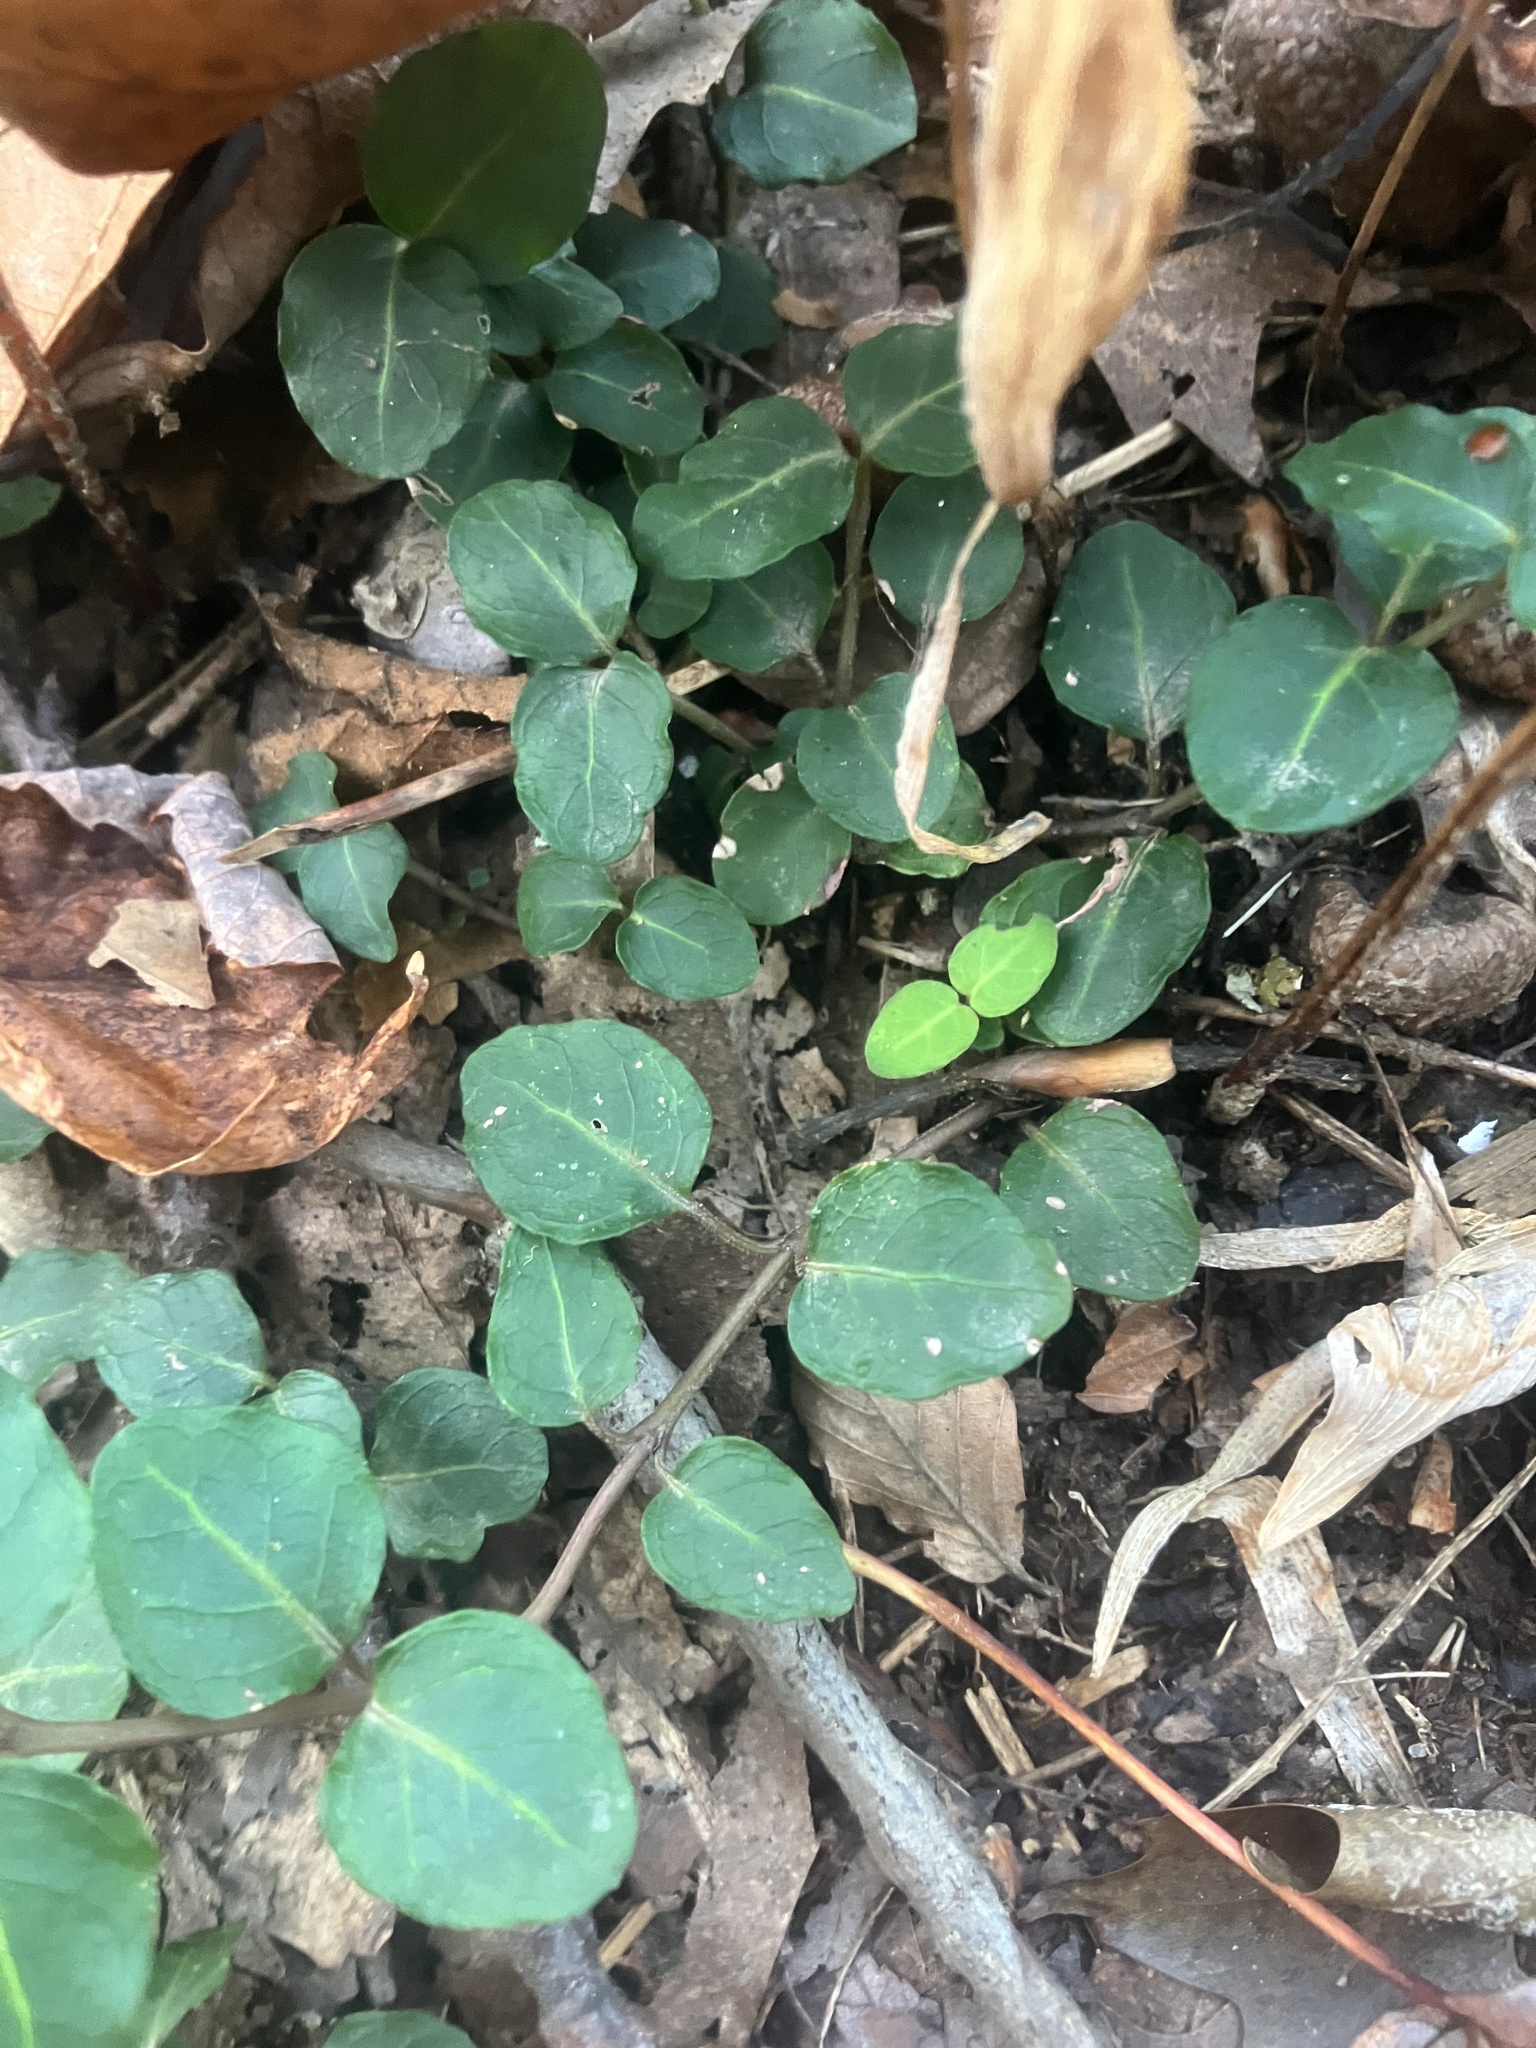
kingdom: Plantae
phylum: Tracheophyta
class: Magnoliopsida
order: Gentianales
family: Rubiaceae
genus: Mitchella
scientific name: Mitchella repens
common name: Partridge-berry
